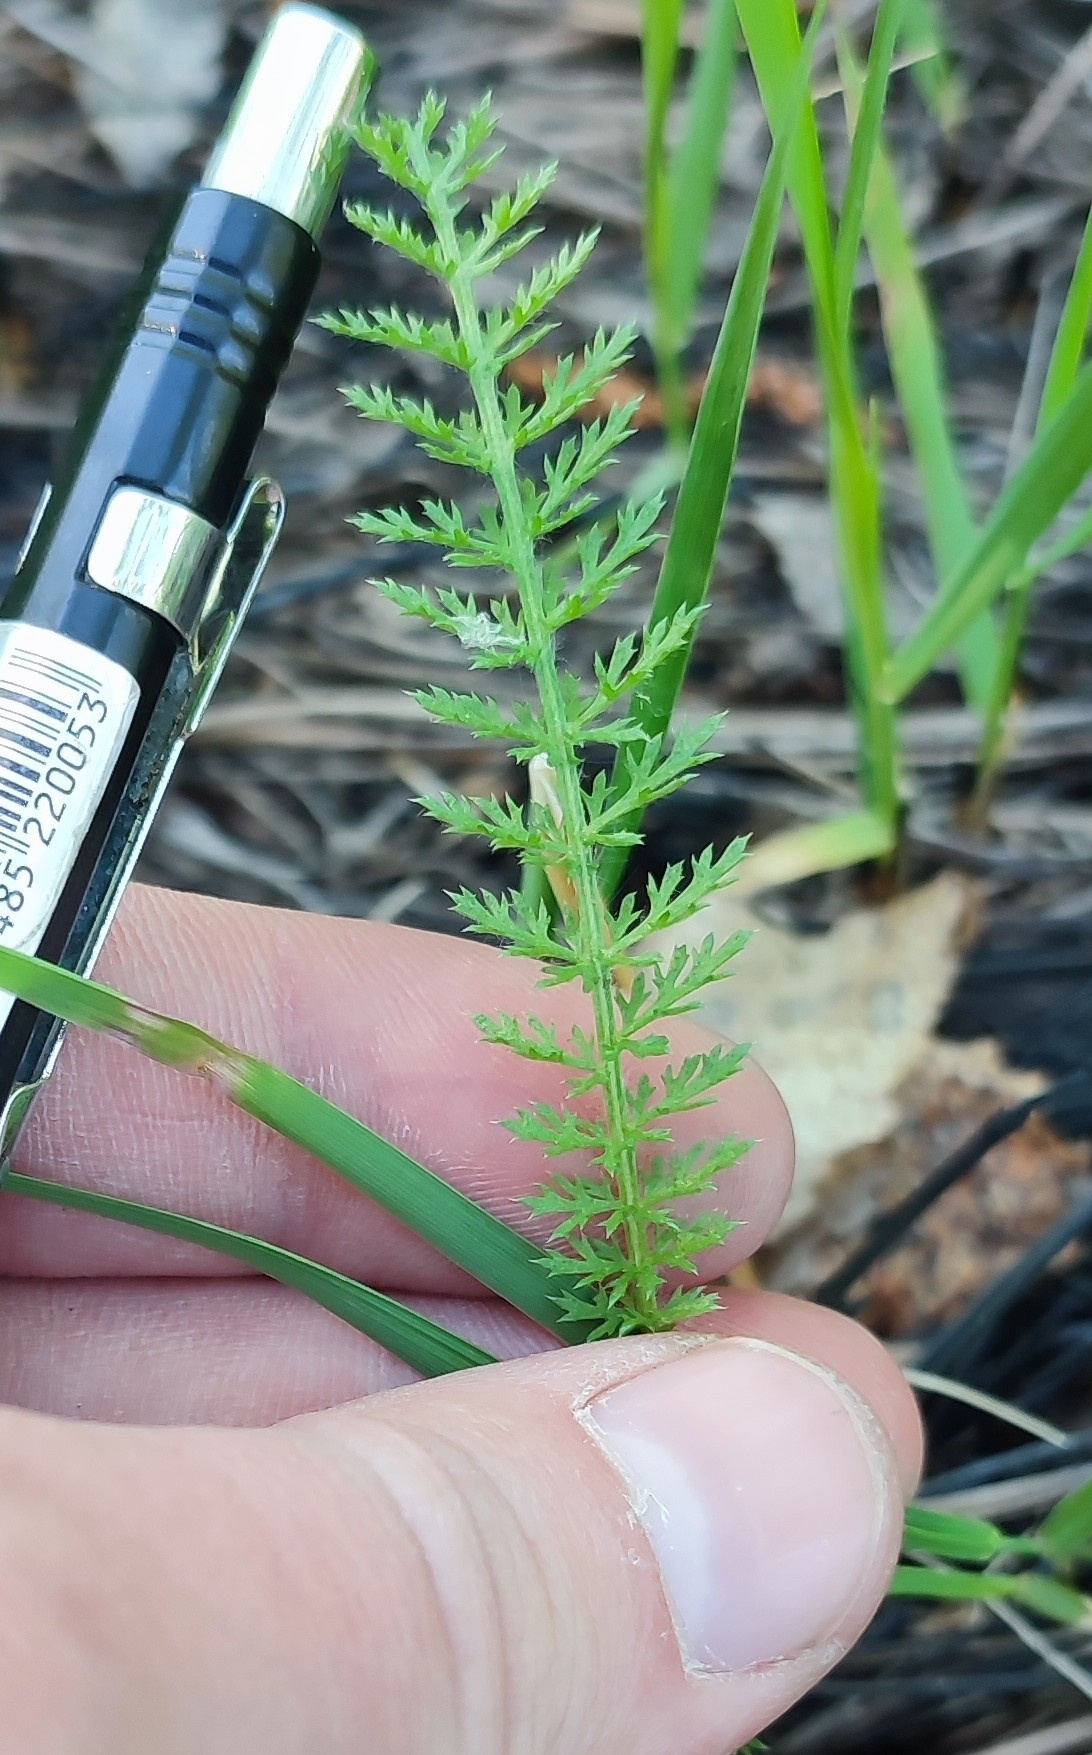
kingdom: Plantae
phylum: Tracheophyta
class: Magnoliopsida
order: Asterales
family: Asteraceae
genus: Achillea
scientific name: Achillea millefolium
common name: Yarrow
